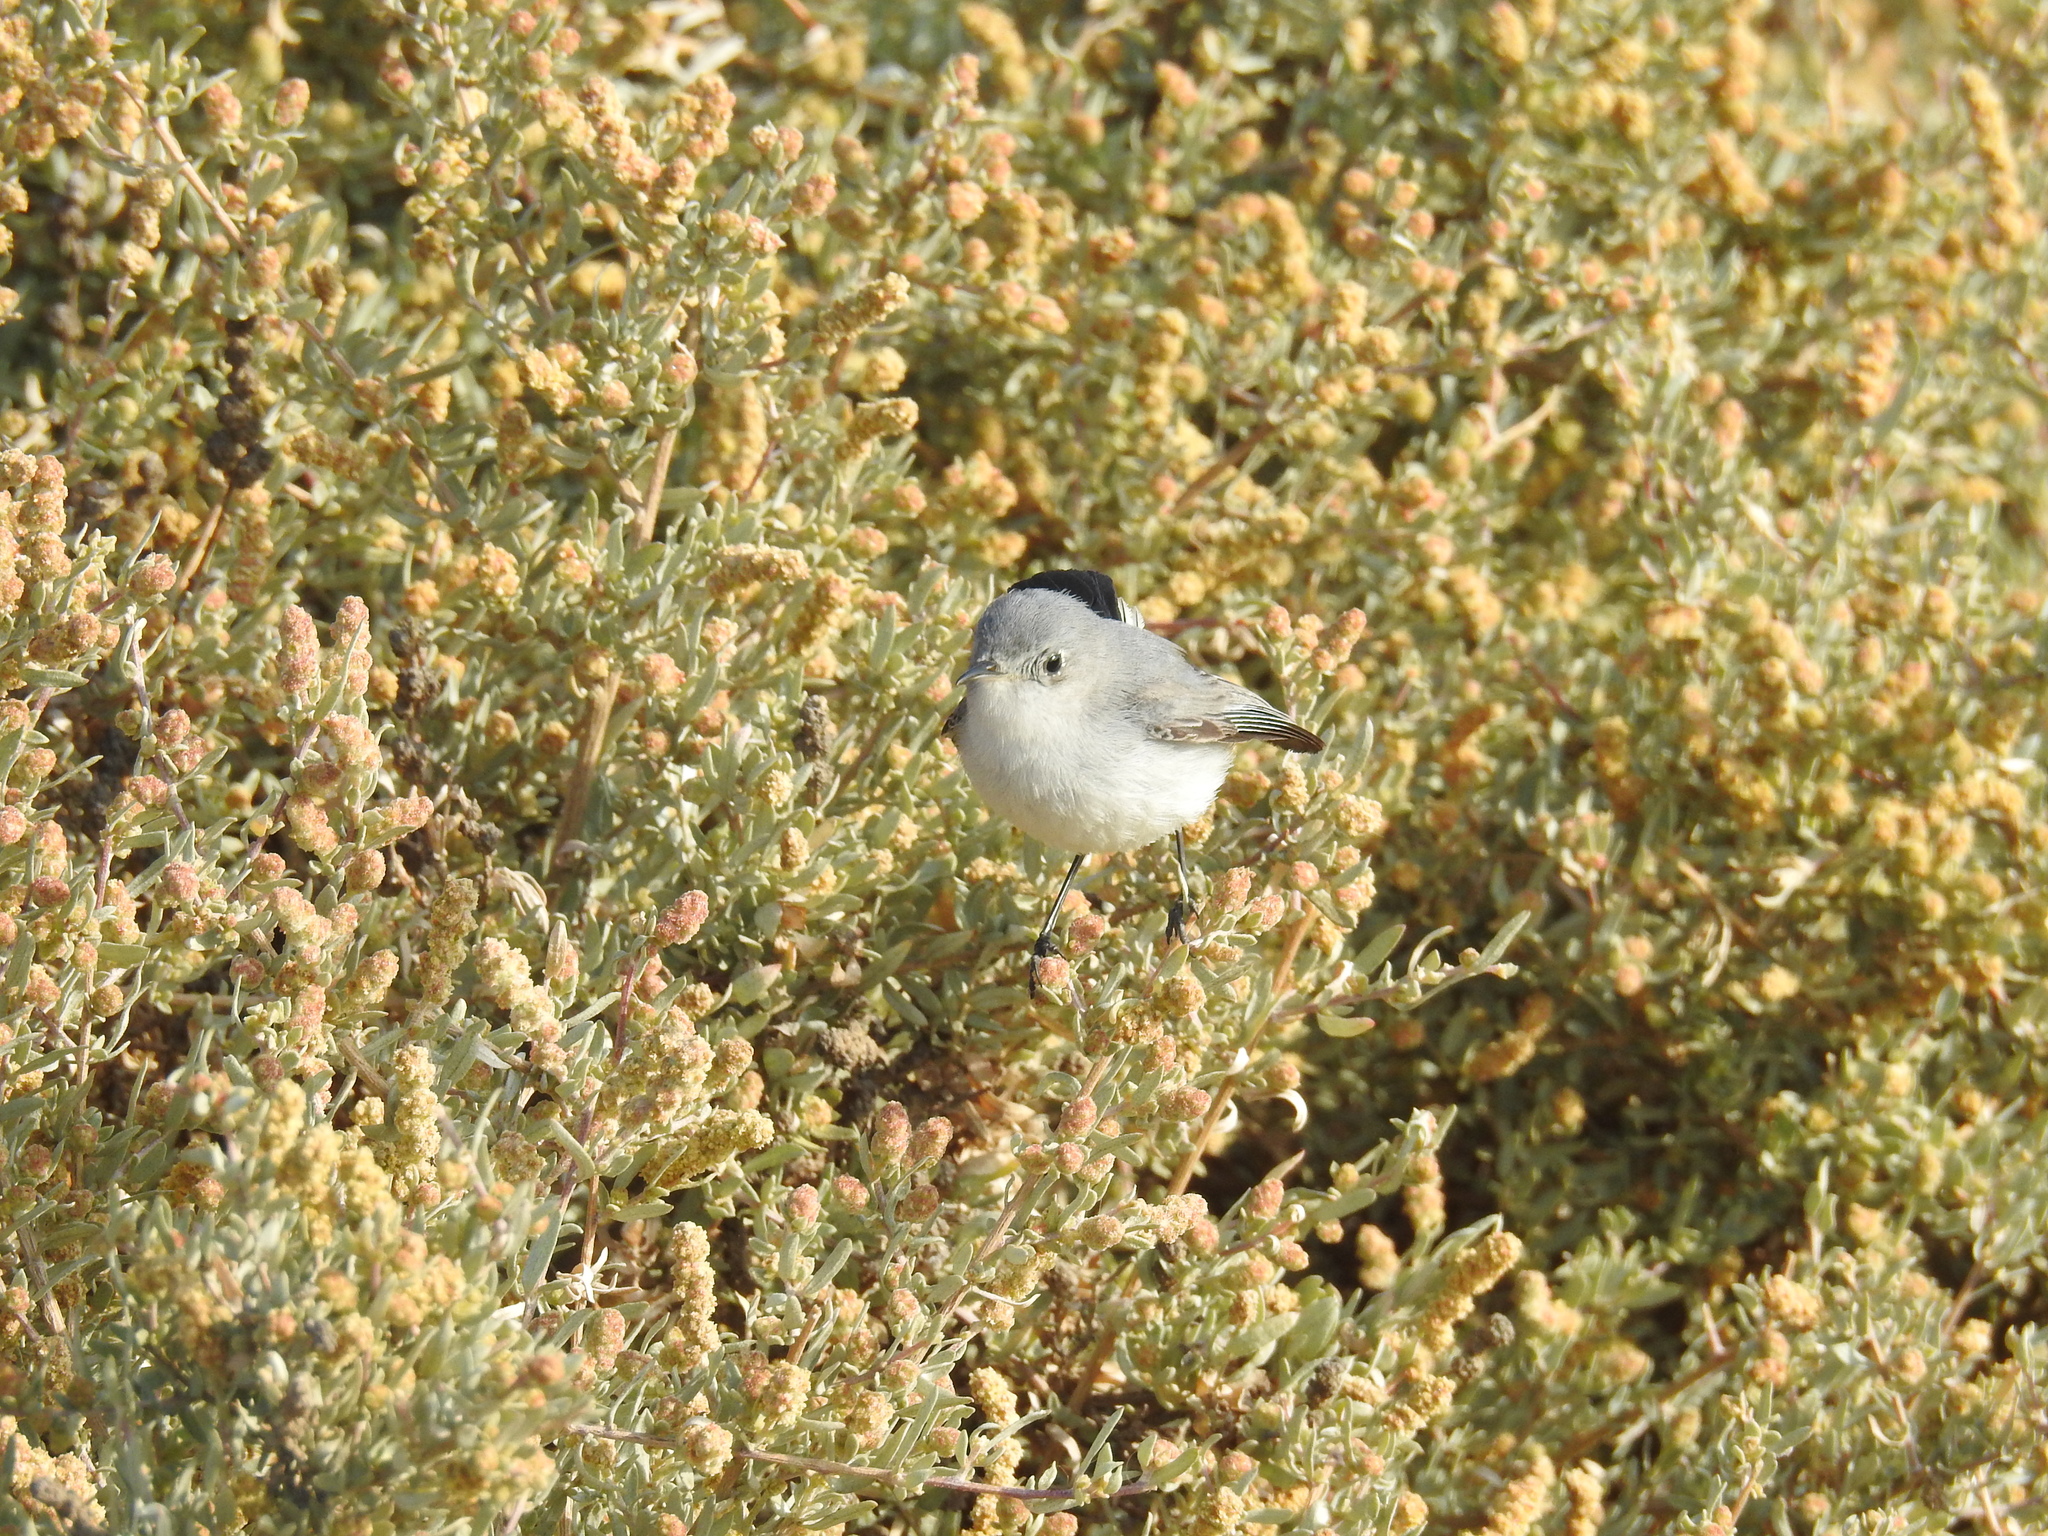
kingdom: Animalia
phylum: Chordata
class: Aves
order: Passeriformes
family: Polioptilidae
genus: Polioptila
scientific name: Polioptila caerulea
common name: Blue-gray gnatcatcher
